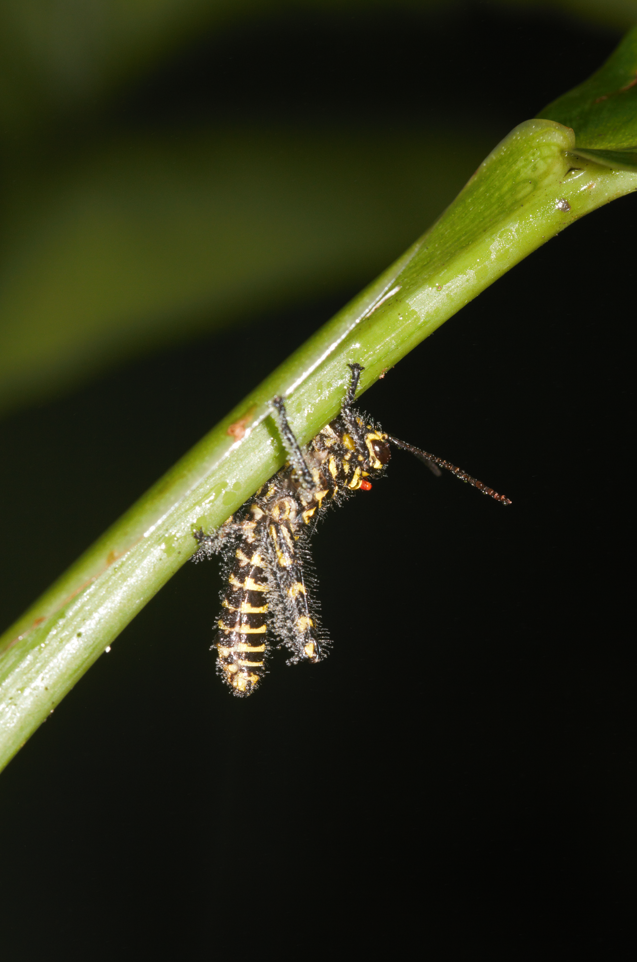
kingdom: Animalia
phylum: Arthropoda
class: Insecta
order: Orthoptera
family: Romaleidae
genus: Tropidacris
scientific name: Tropidacris cristata
